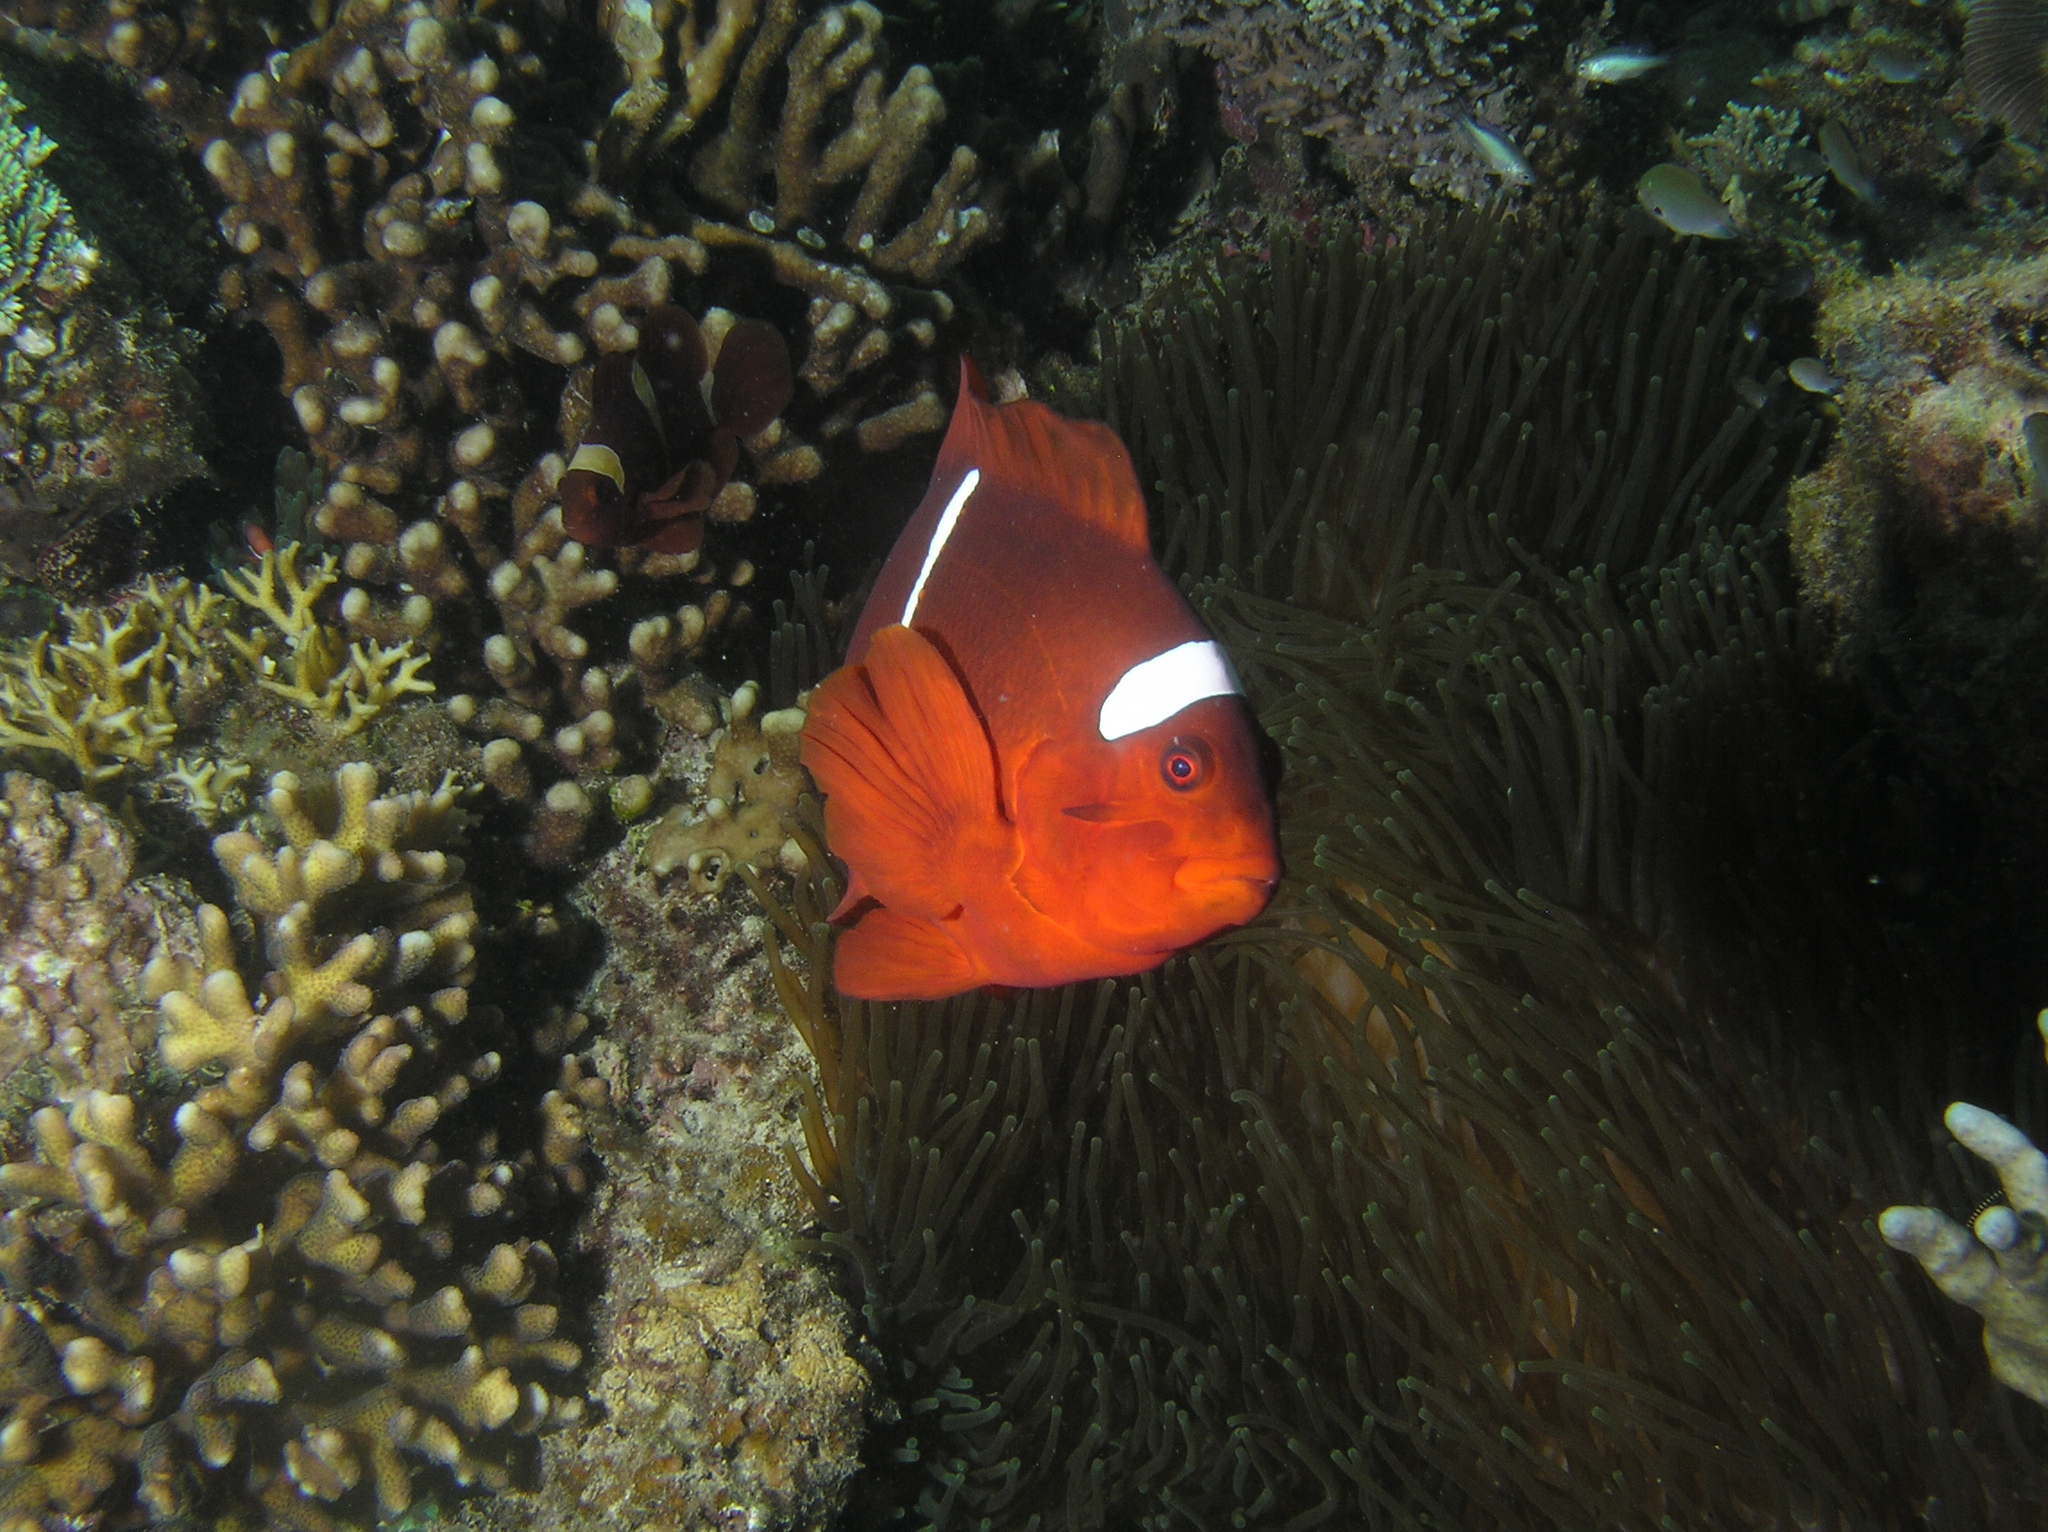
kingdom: Animalia
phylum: Chordata
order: Perciformes
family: Pomacentridae
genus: Premnas
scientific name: Premnas biaculeatus
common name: Spinecheek anemonefish
